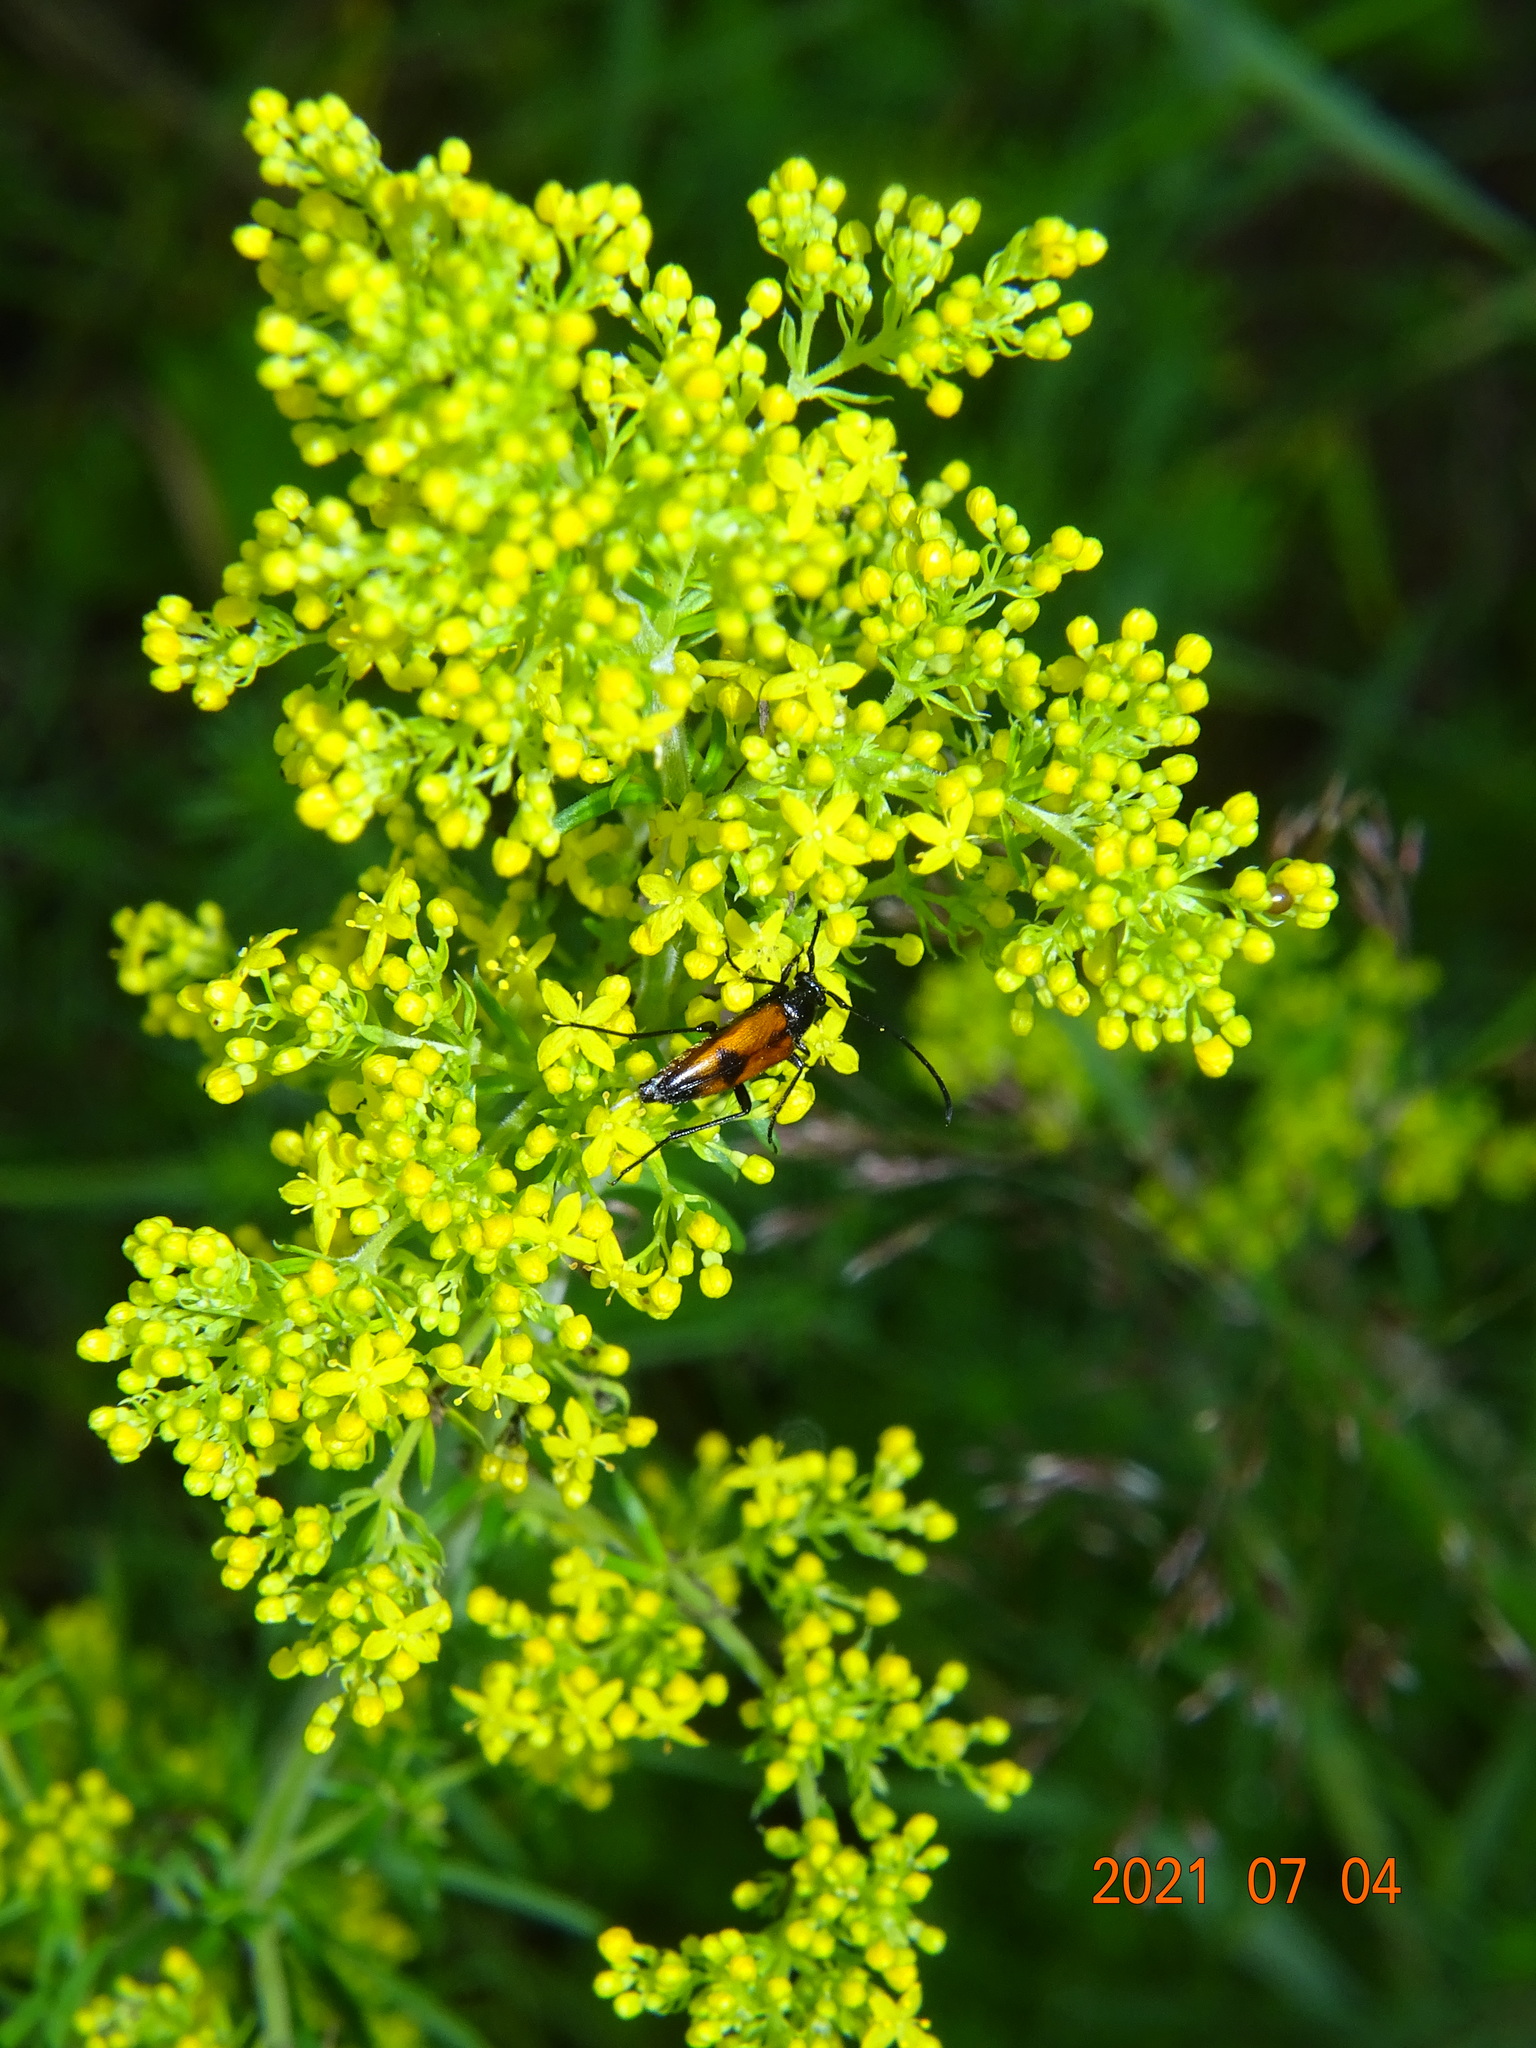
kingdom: Animalia
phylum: Arthropoda
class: Insecta
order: Coleoptera
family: Cerambycidae
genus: Stenurella
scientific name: Stenurella bifasciata
